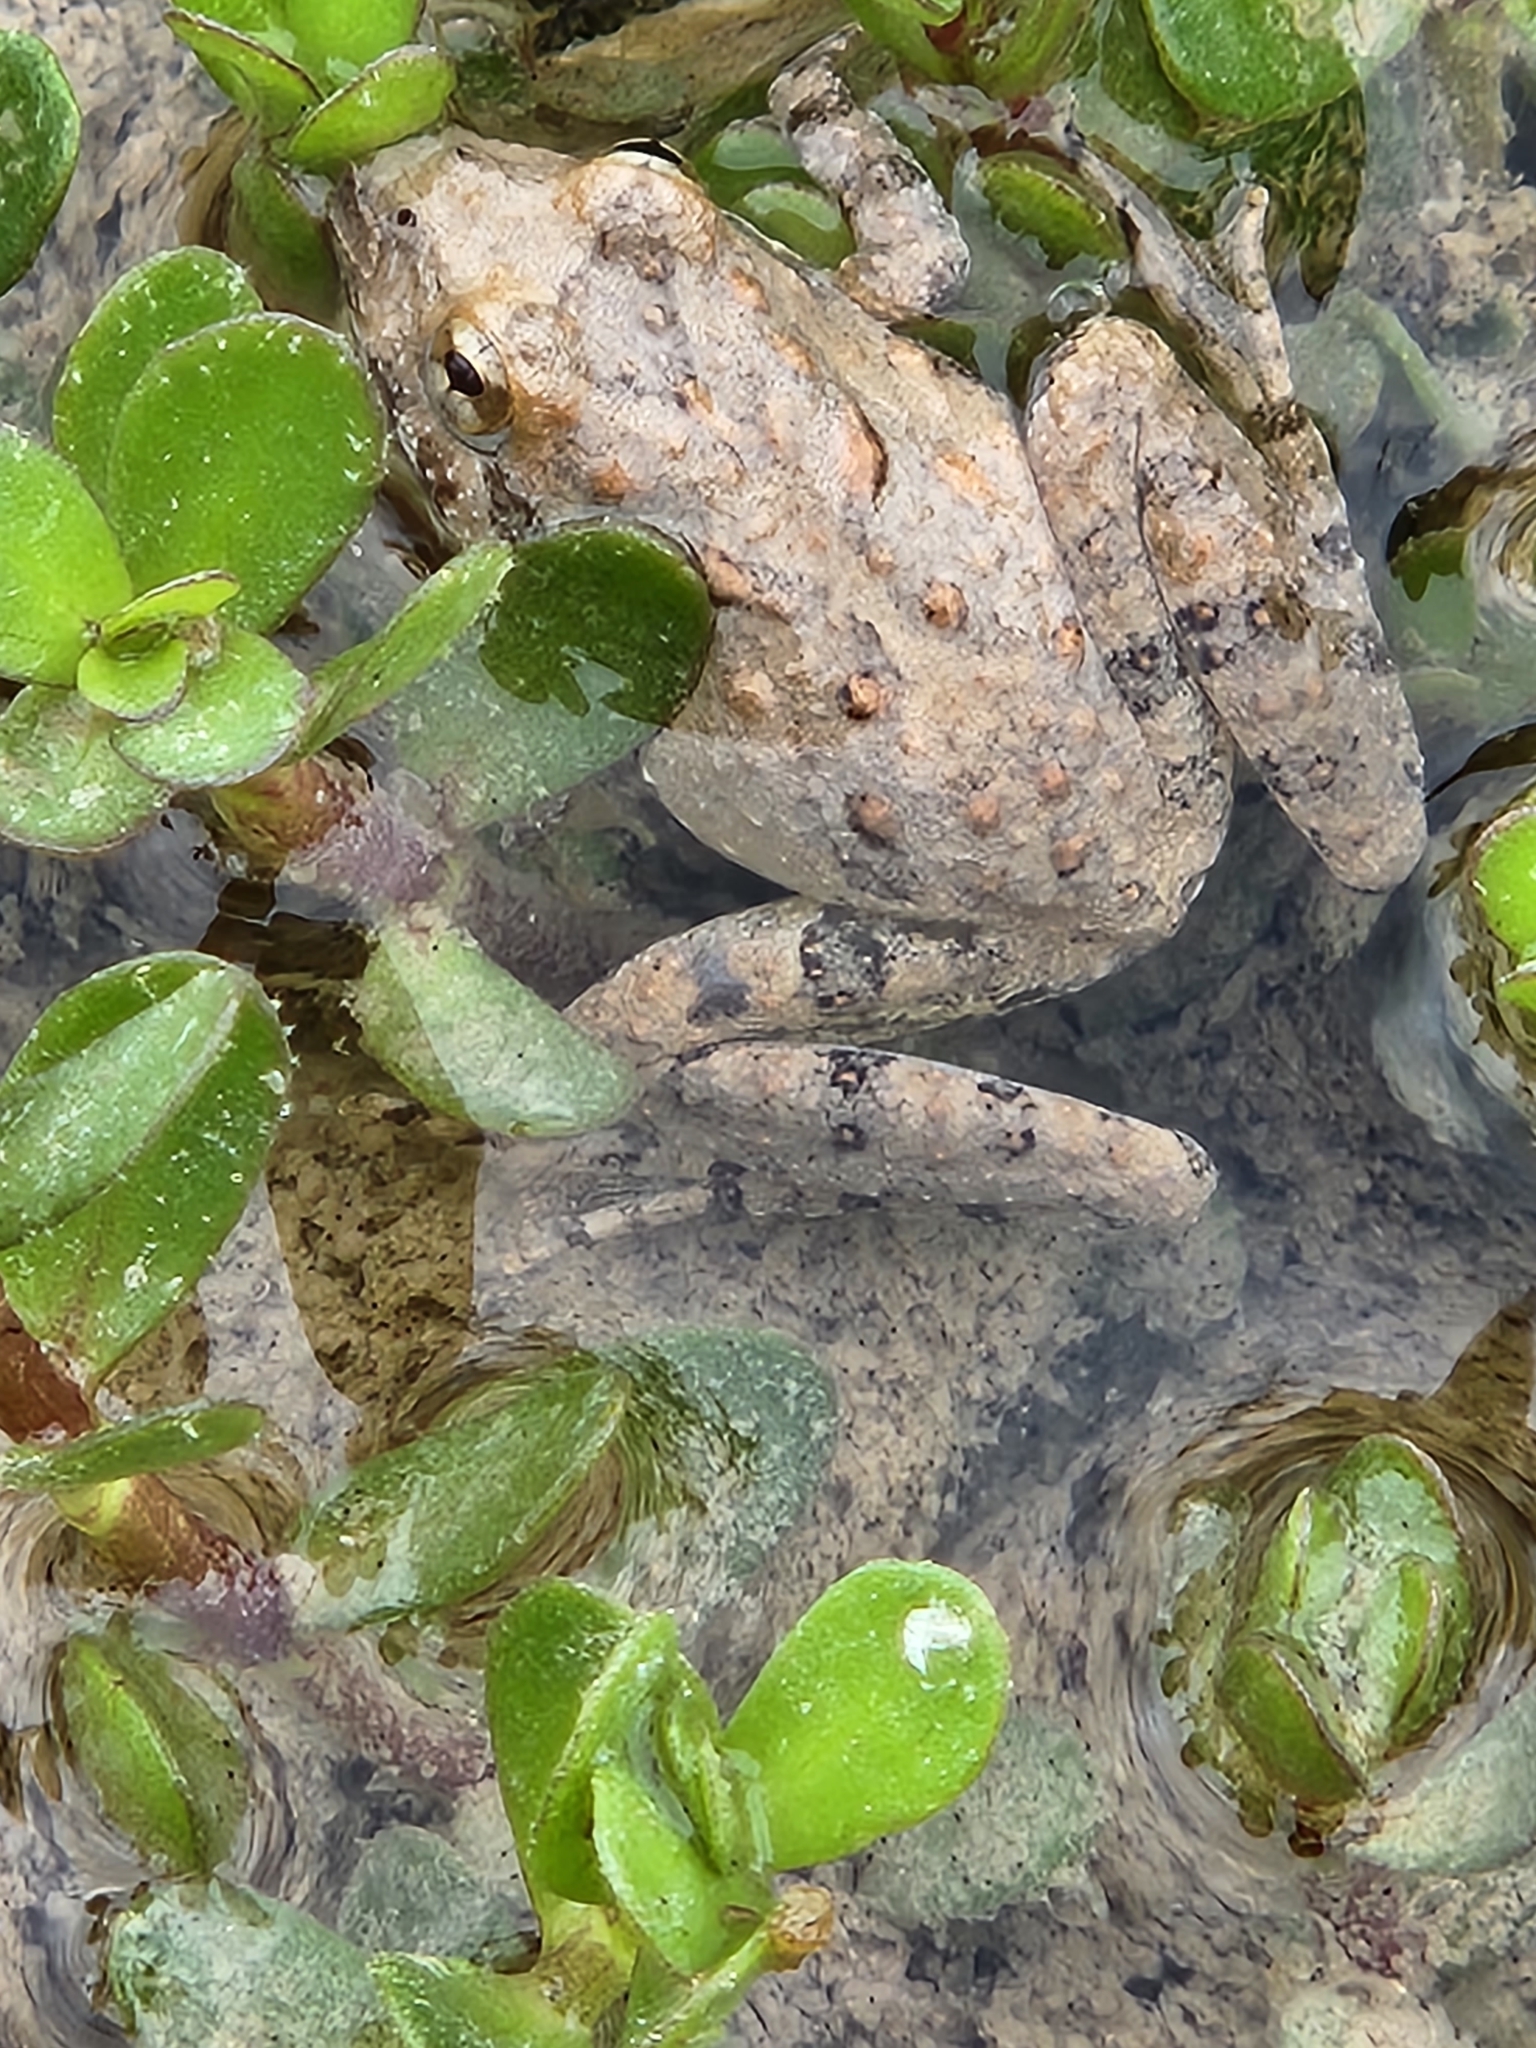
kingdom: Animalia
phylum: Chordata
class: Amphibia
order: Anura
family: Hylidae
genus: Acris
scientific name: Acris blanchardi
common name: Blanchard's cricket frog
